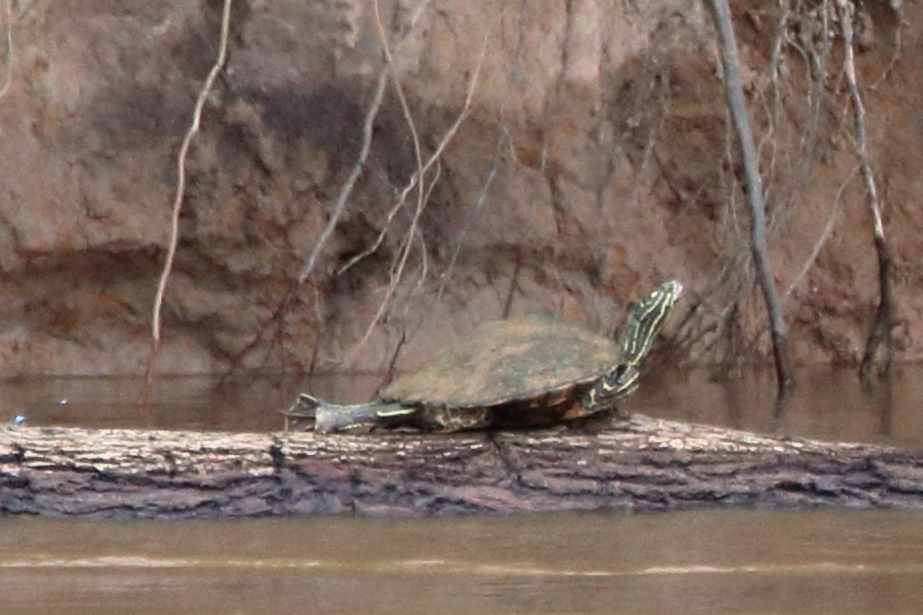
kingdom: Animalia
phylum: Chordata
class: Testudines
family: Emydidae
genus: Graptemys
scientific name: Graptemys oculifera
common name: Ringed map turtle
